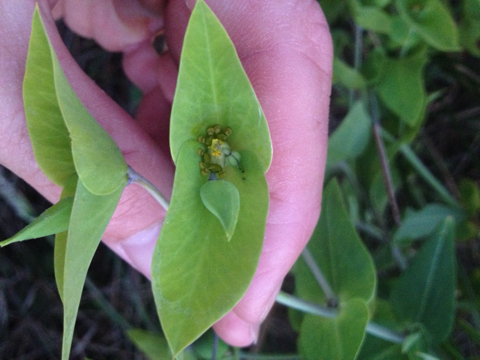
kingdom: Plantae
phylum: Tracheophyta
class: Magnoliopsida
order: Malpighiales
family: Euphorbiaceae
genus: Euphorbia
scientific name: Euphorbia lathyris
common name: Caper spurge
